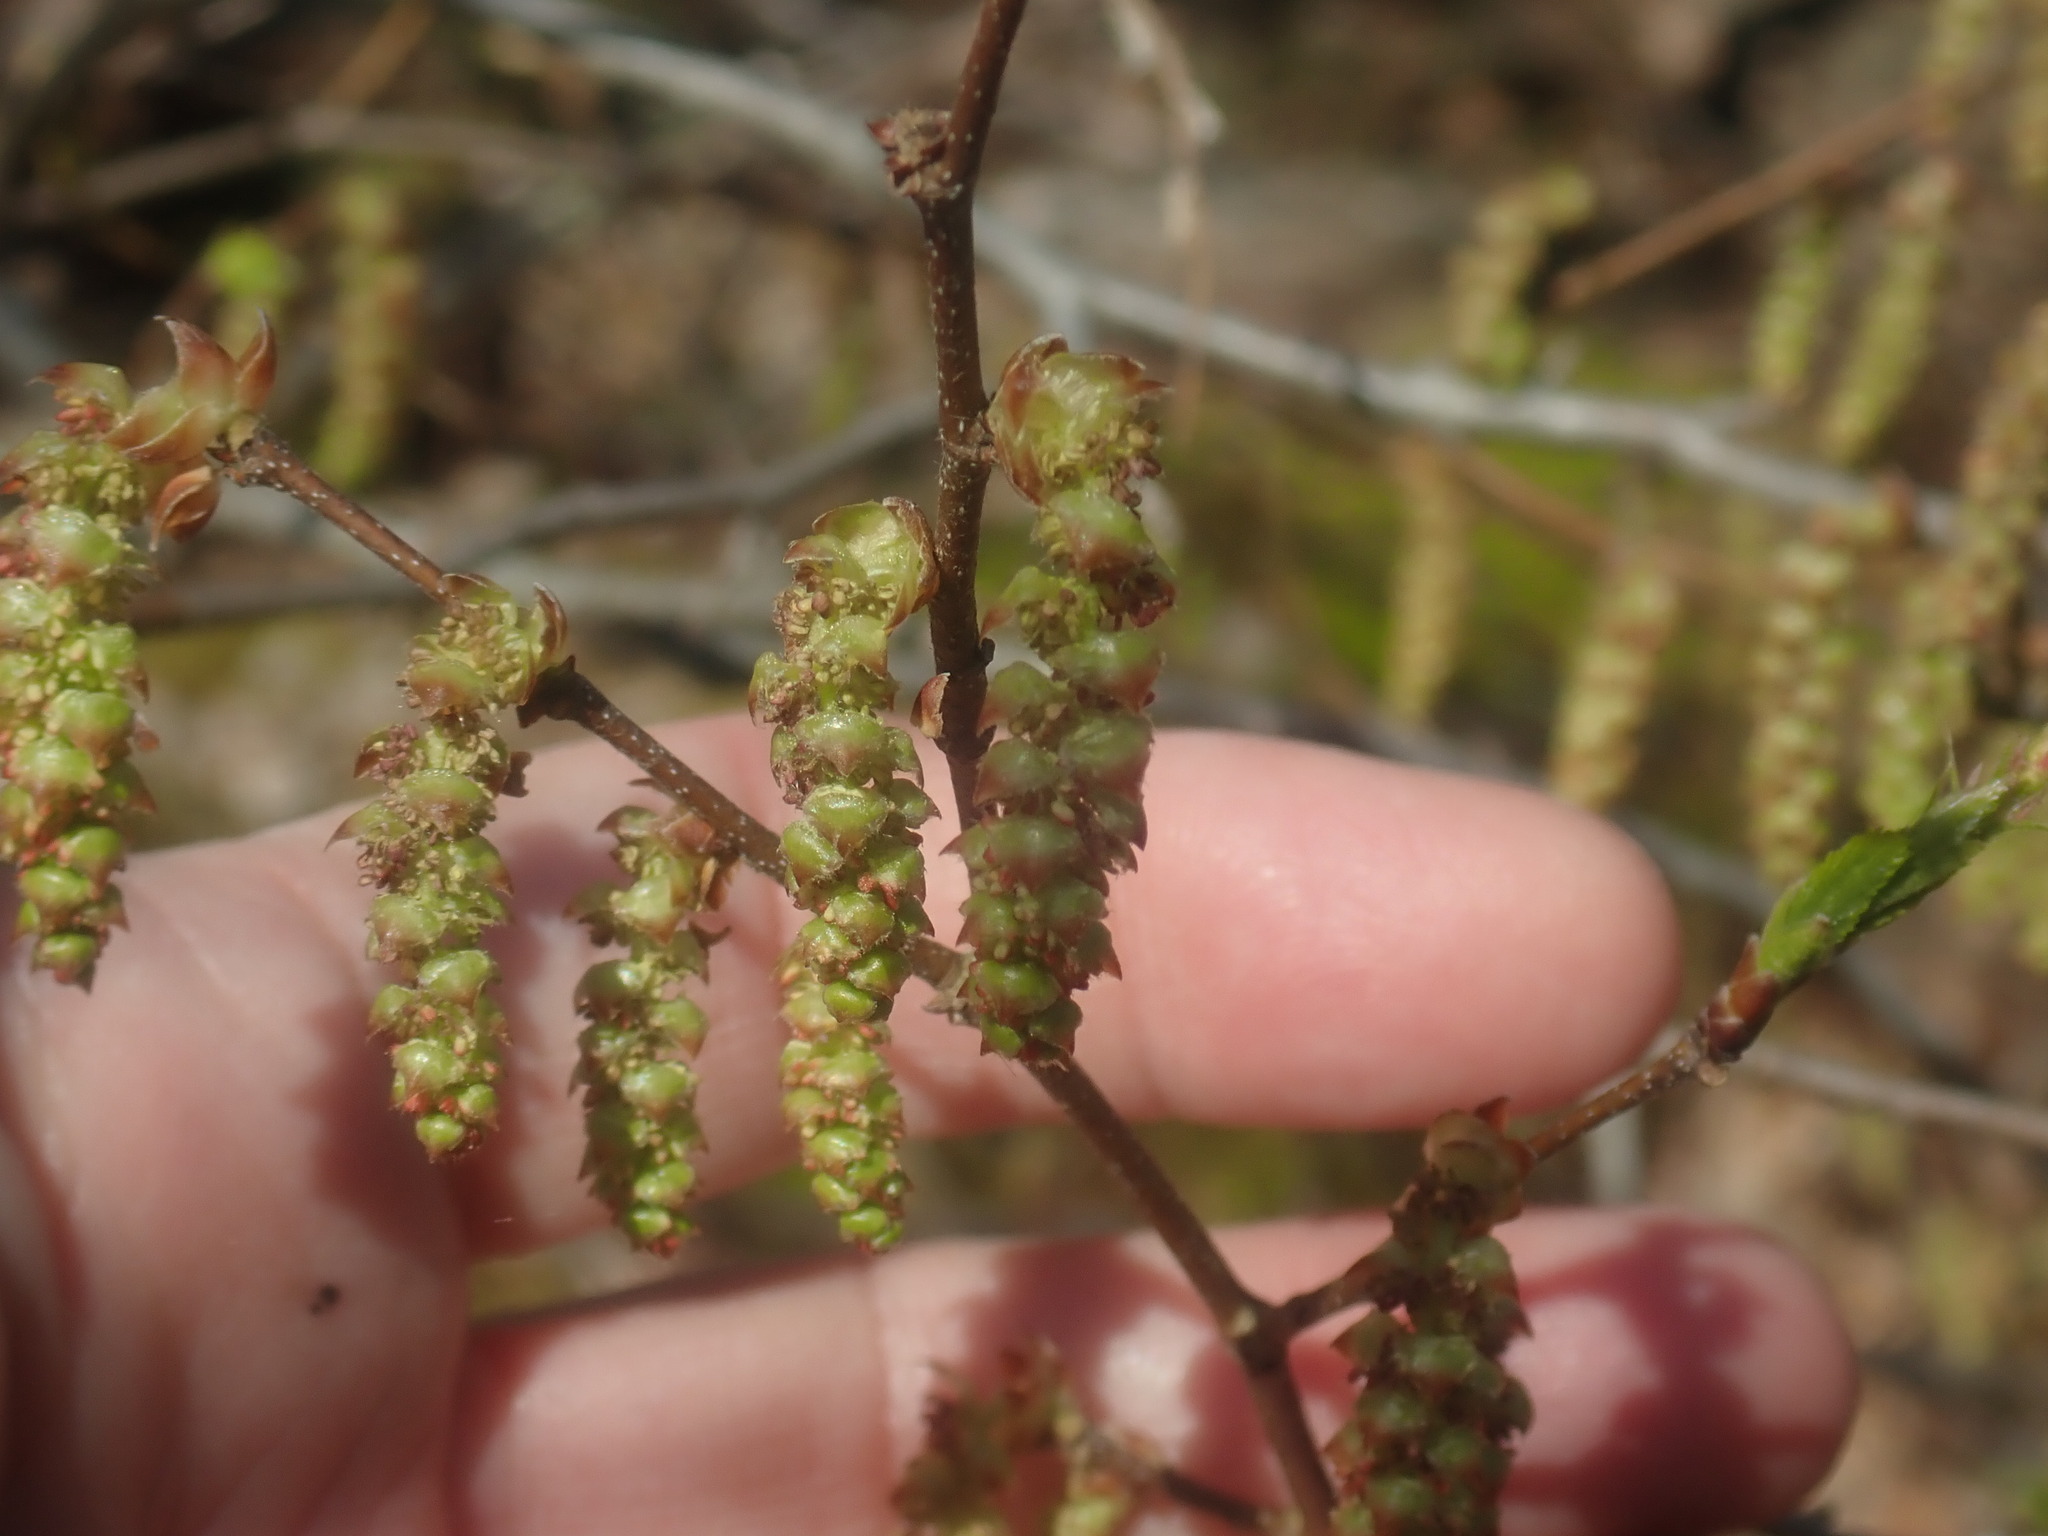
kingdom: Plantae
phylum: Tracheophyta
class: Magnoliopsida
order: Fagales
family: Betulaceae
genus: Carpinus
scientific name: Carpinus caroliniana
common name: American hornbeam
